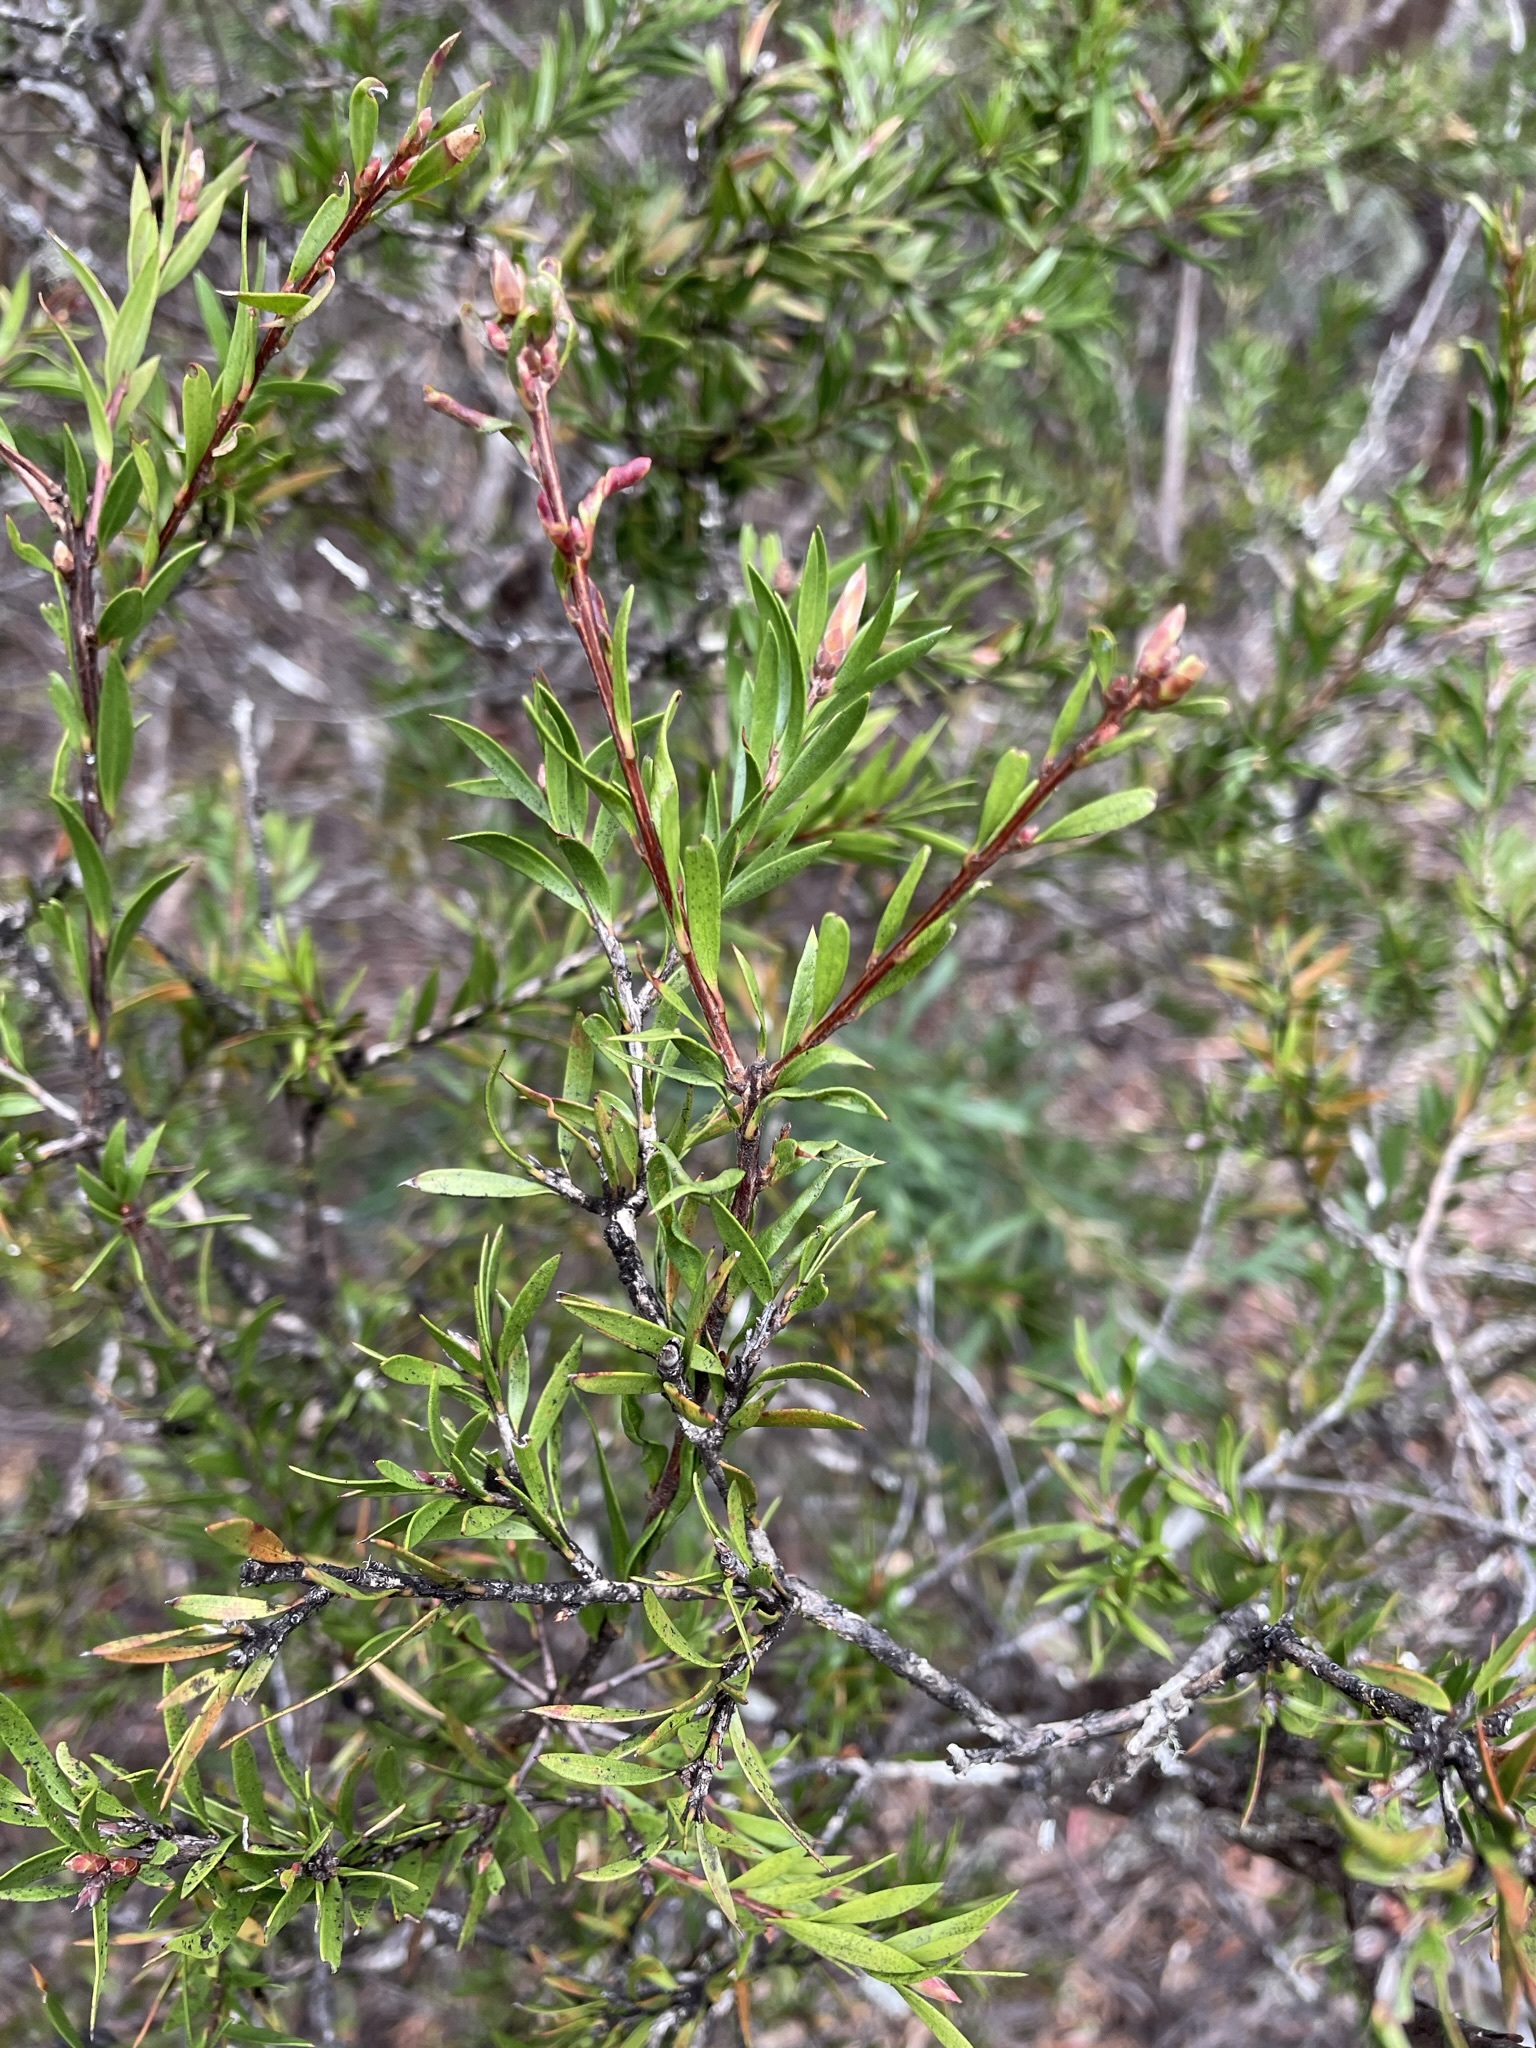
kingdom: Plantae
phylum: Tracheophyta
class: Magnoliopsida
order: Myrtales
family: Myrtaceae
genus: Callistemon
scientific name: Callistemon viridiflorus
